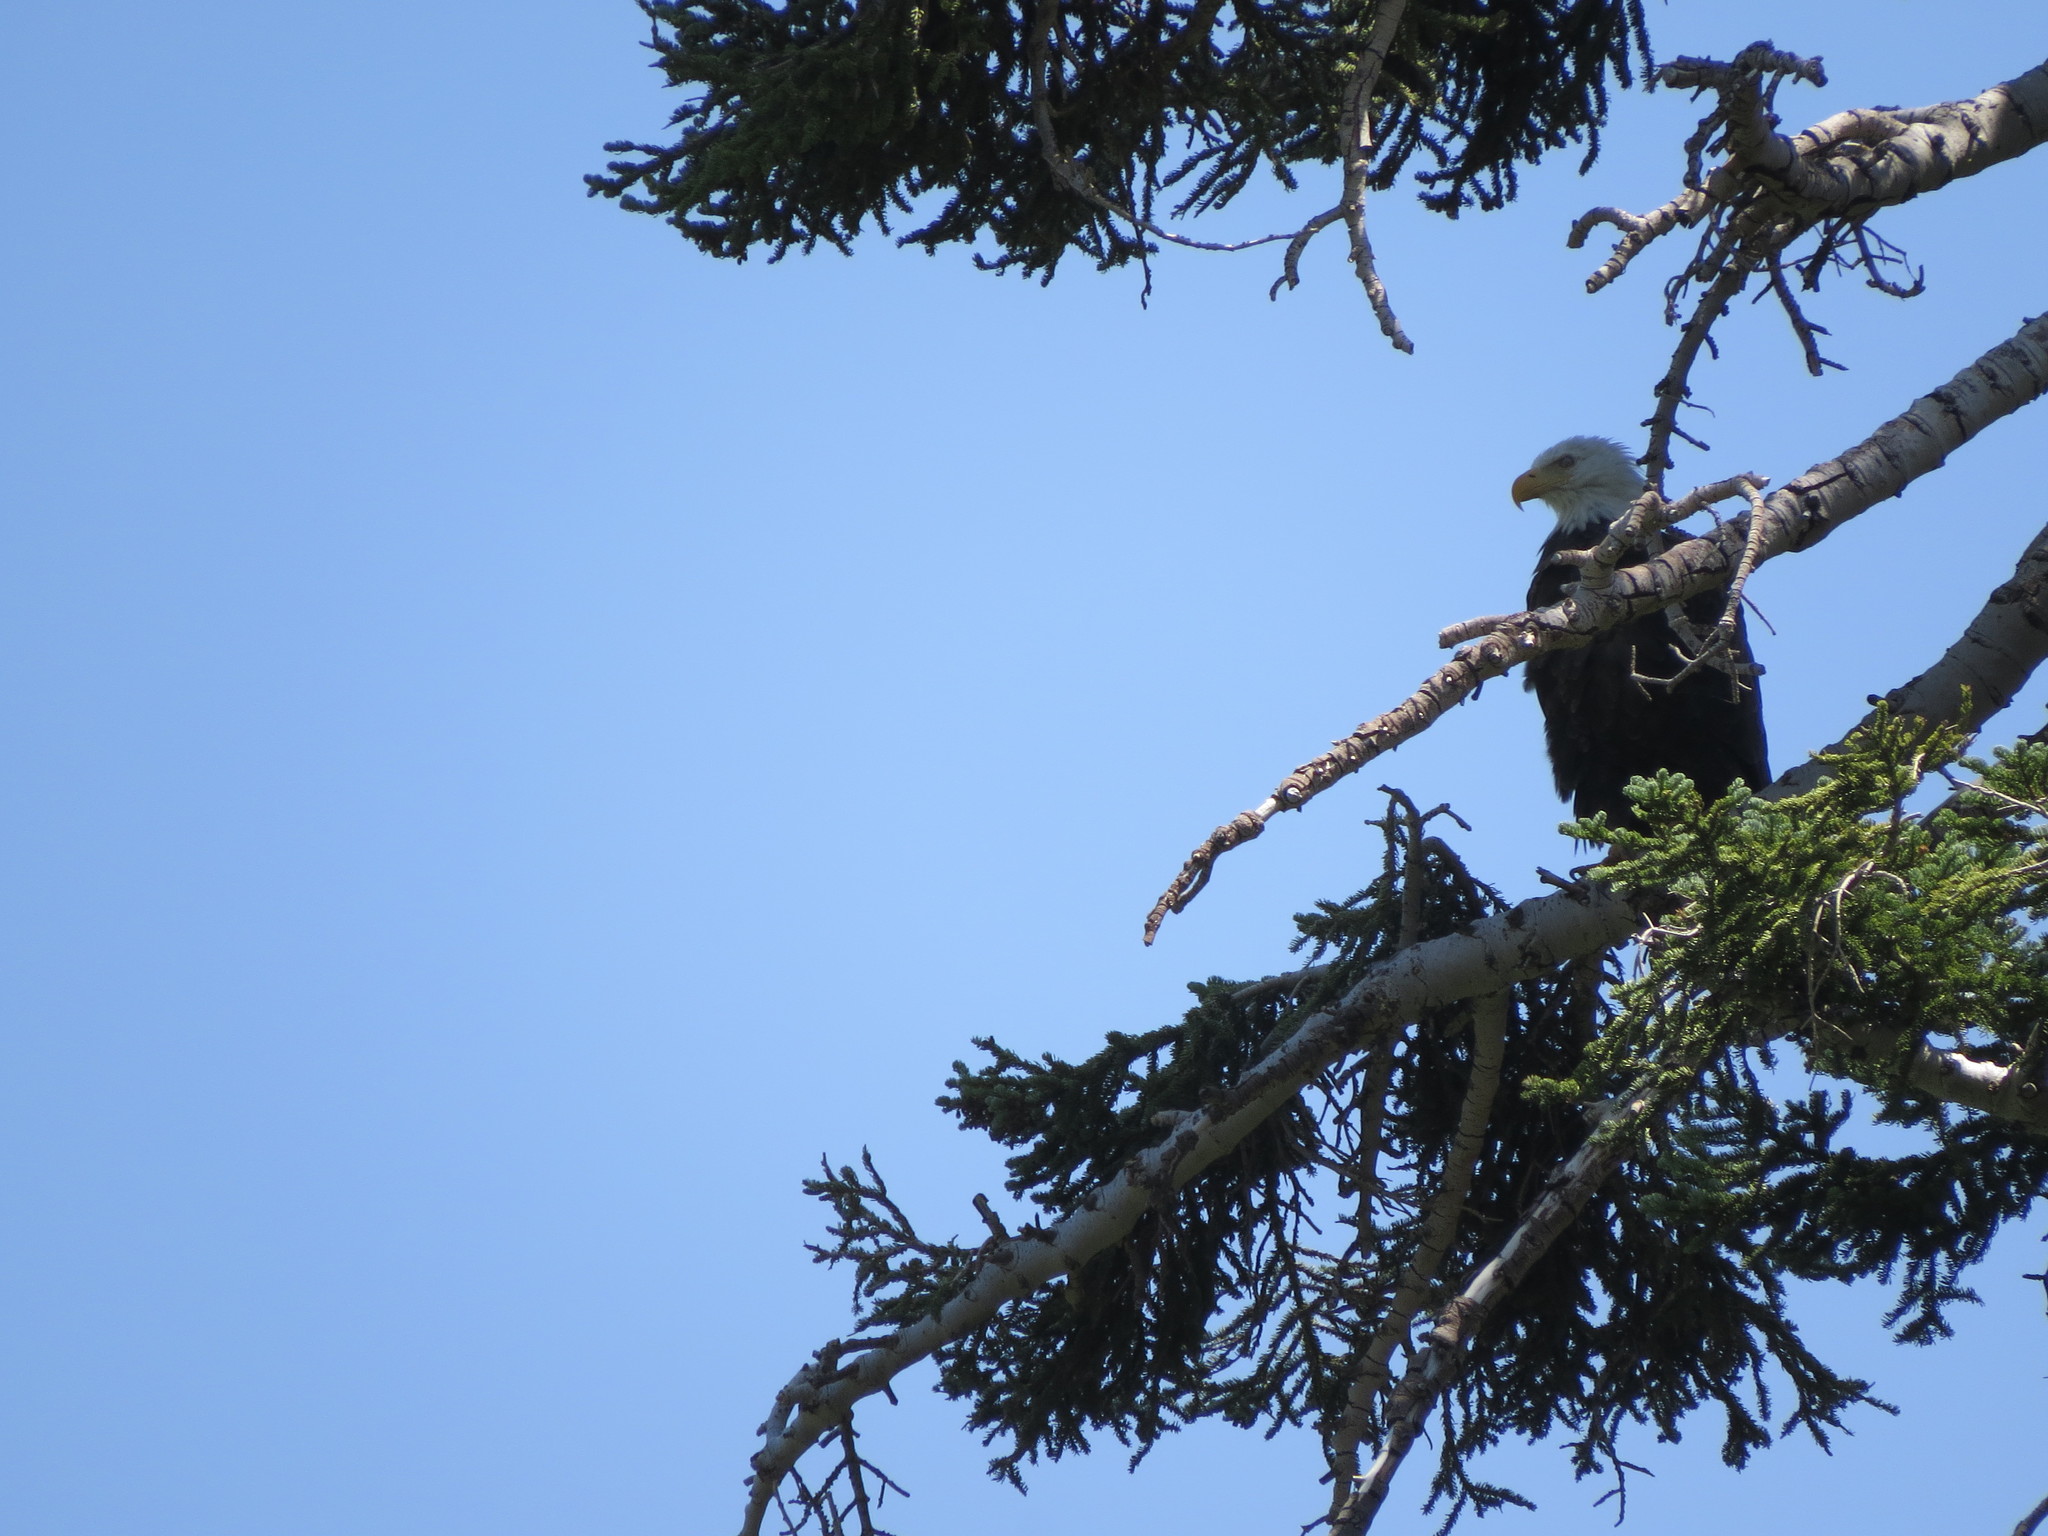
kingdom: Animalia
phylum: Chordata
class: Aves
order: Accipitriformes
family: Accipitridae
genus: Haliaeetus
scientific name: Haliaeetus leucocephalus
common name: Bald eagle
